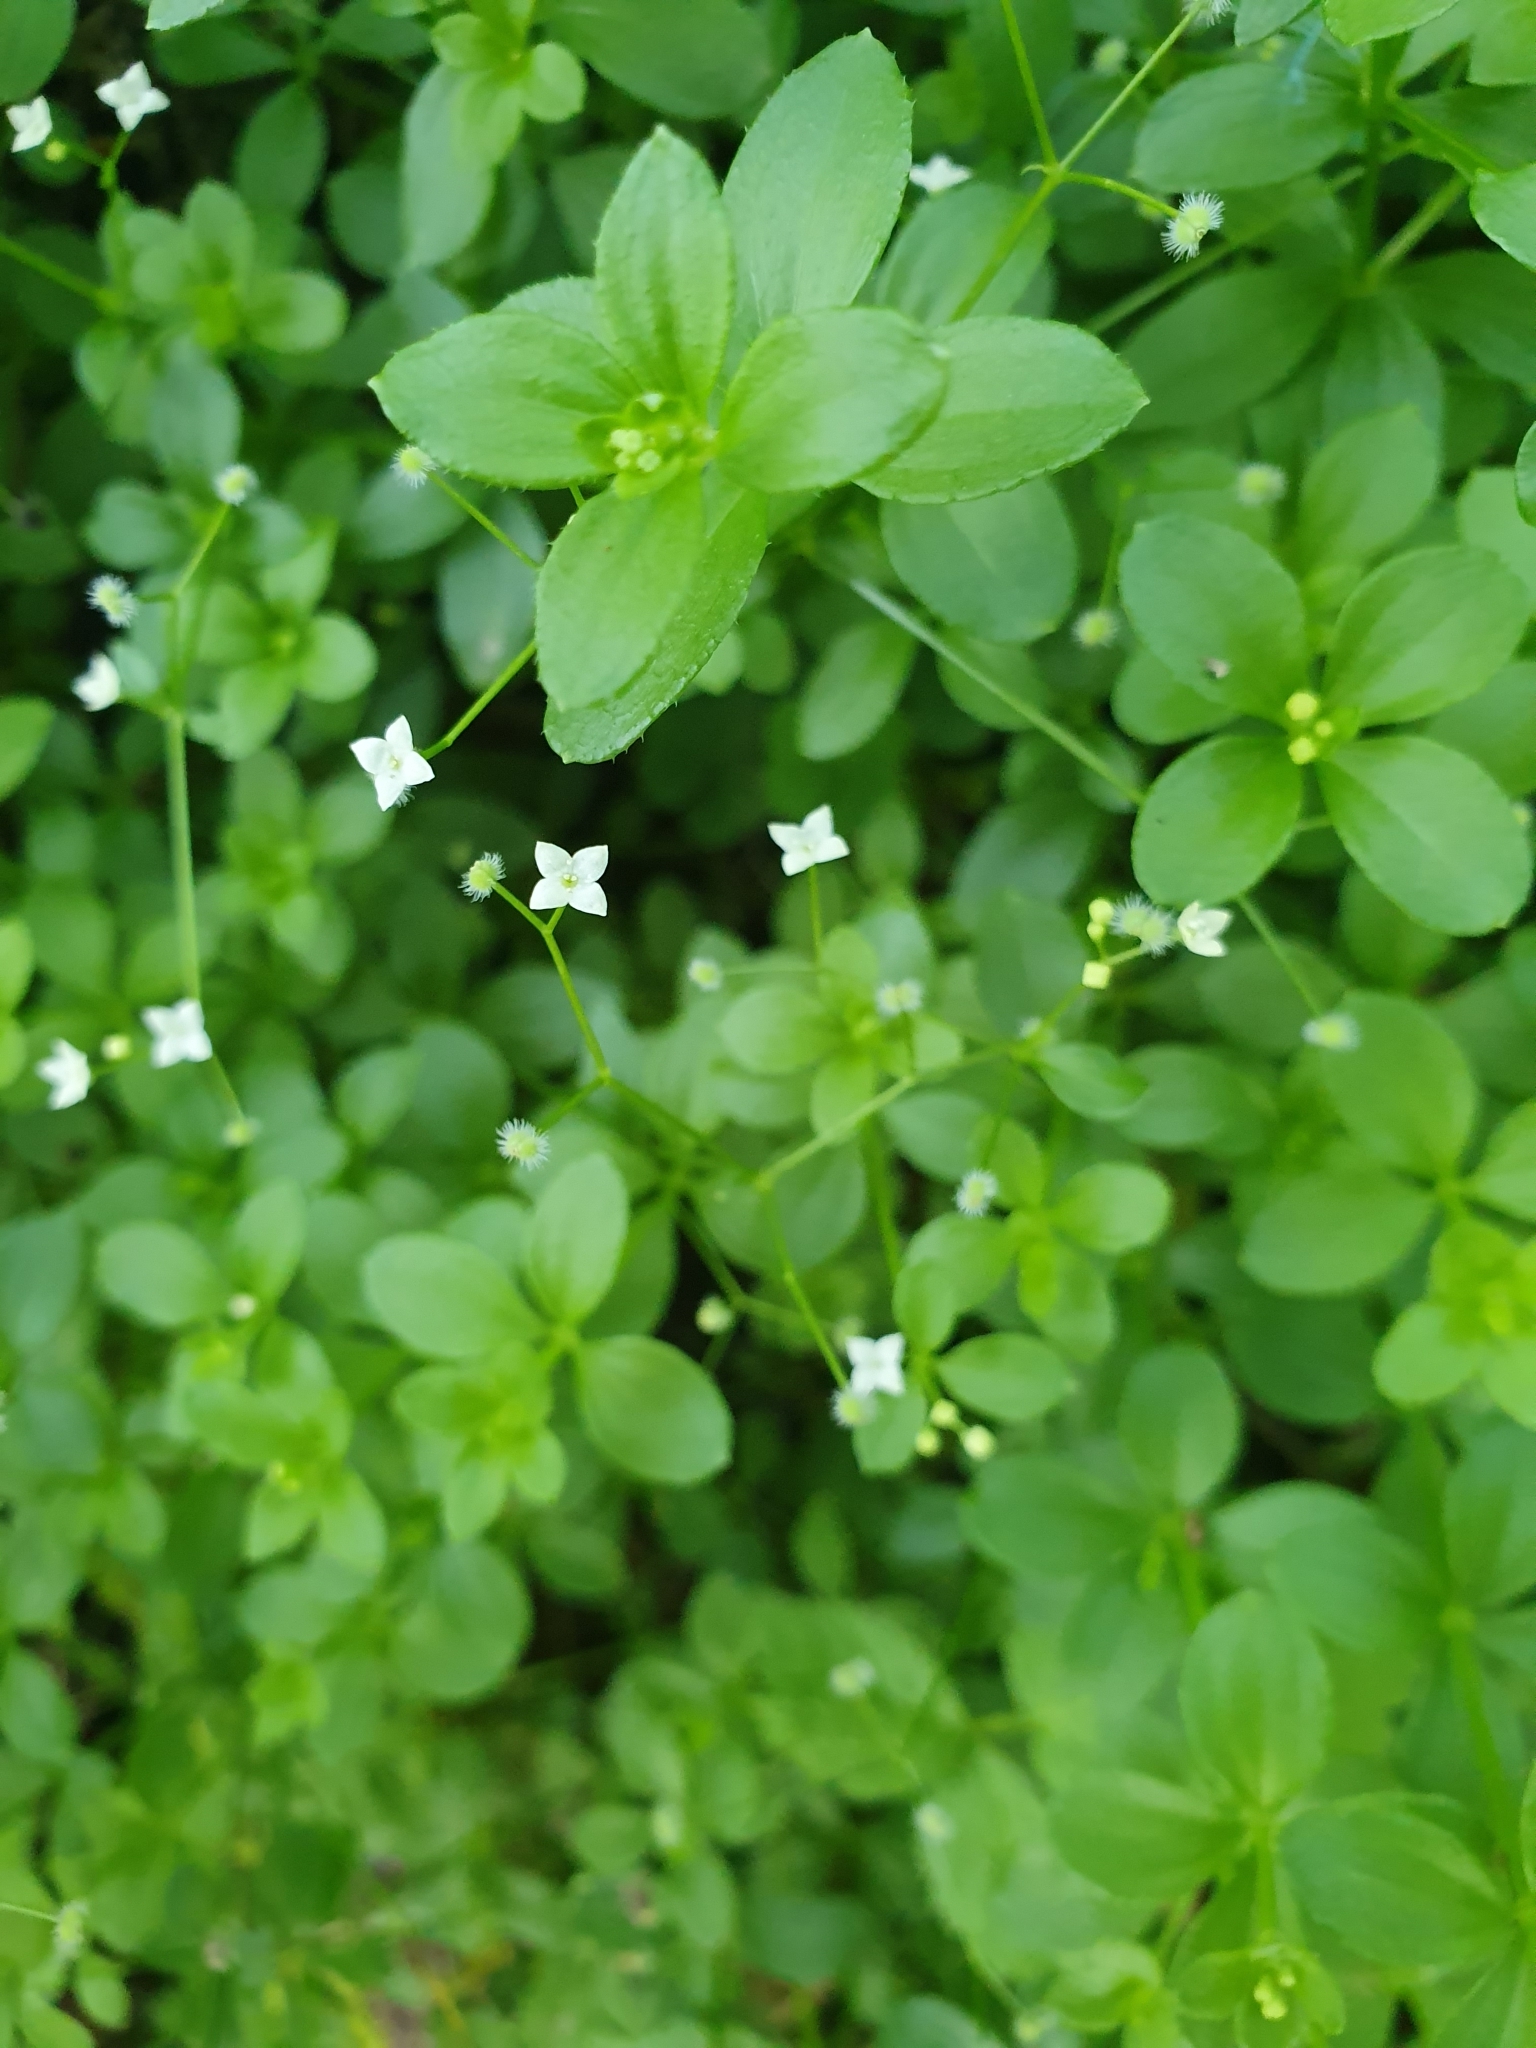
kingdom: Plantae
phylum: Tracheophyta
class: Magnoliopsida
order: Gentianales
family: Rubiaceae
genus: Galium
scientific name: Galium rotundifolium
